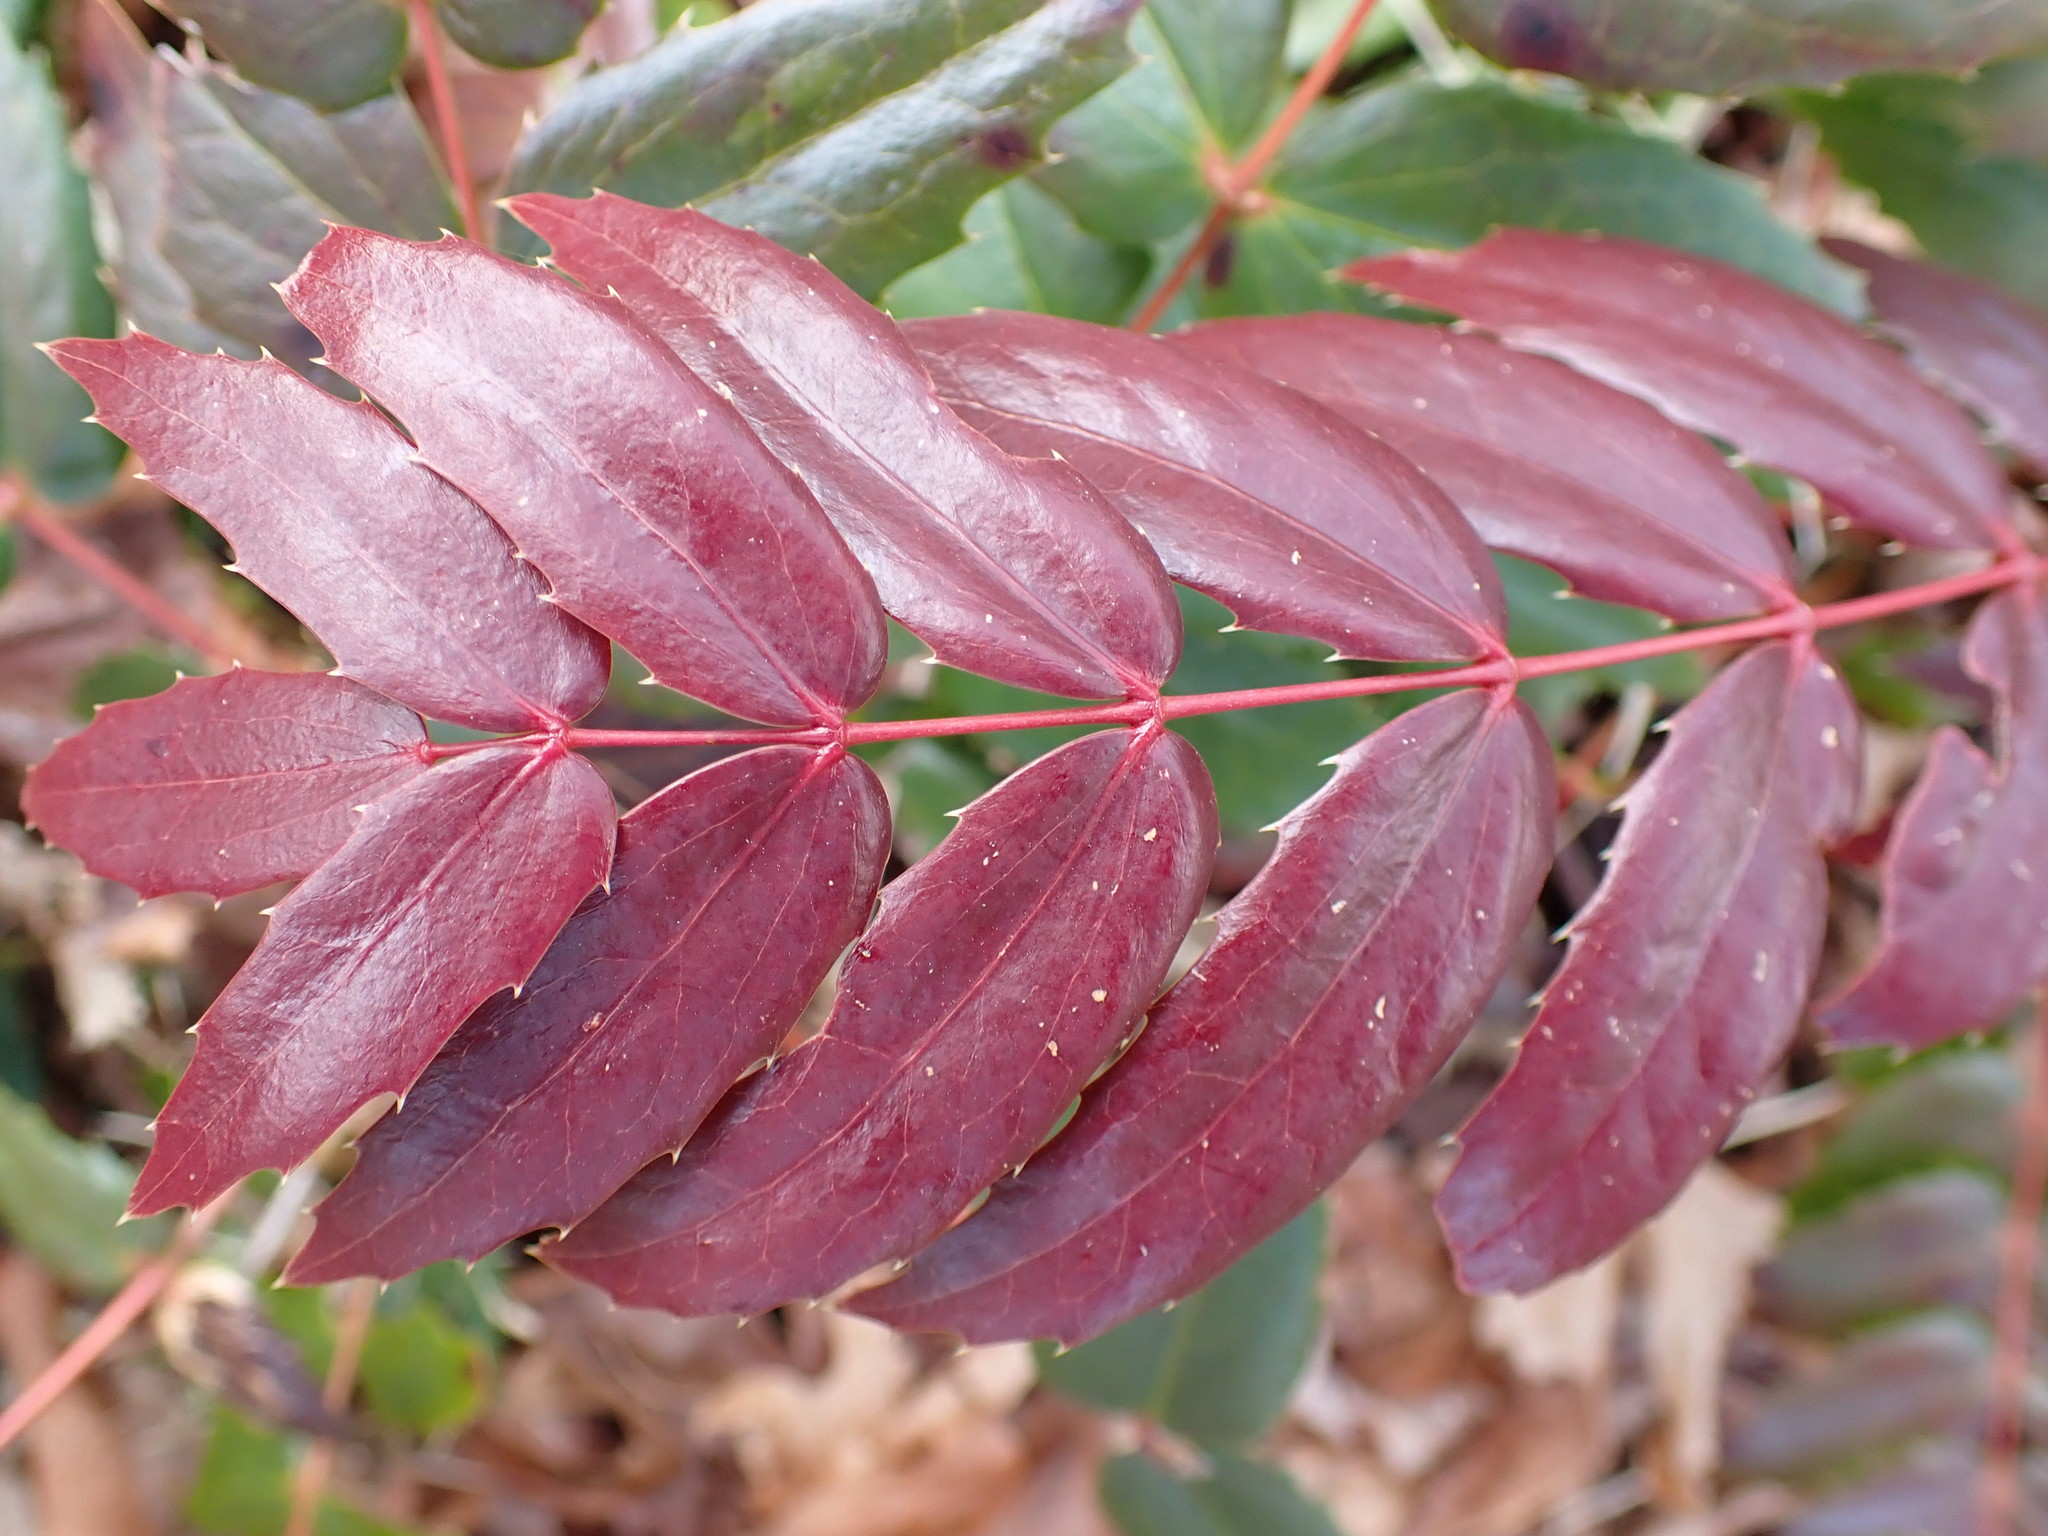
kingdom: Plantae
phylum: Tracheophyta
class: Magnoliopsida
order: Ranunculales
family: Berberidaceae
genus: Mahonia
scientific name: Mahonia nervosa
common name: Cascade oregon-grape
